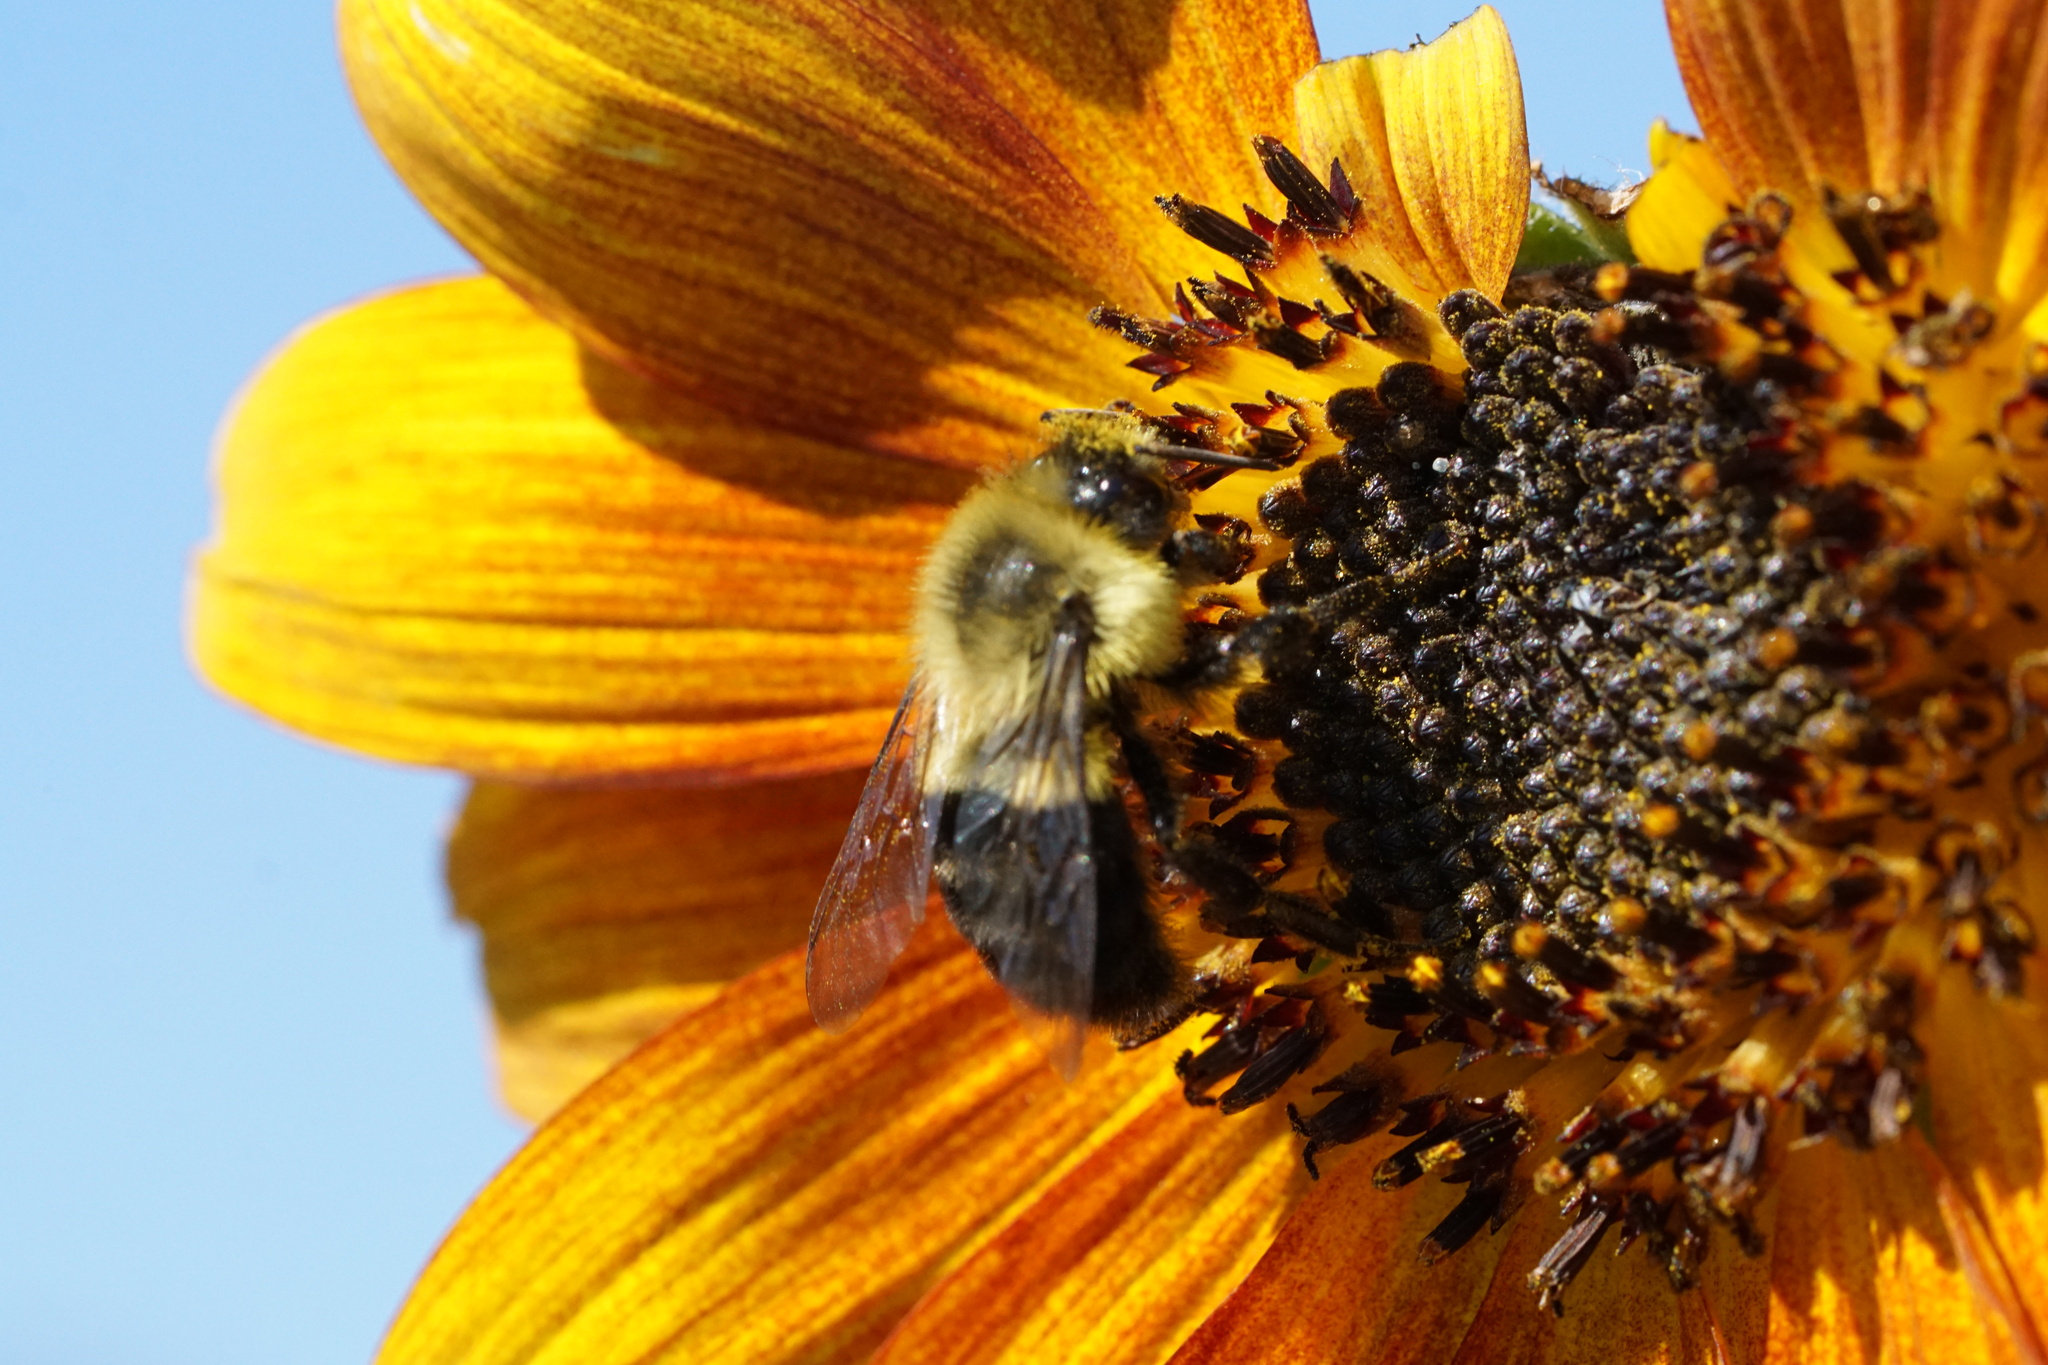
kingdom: Animalia
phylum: Arthropoda
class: Insecta
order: Hymenoptera
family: Apidae
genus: Bombus
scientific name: Bombus impatiens
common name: Common eastern bumble bee
